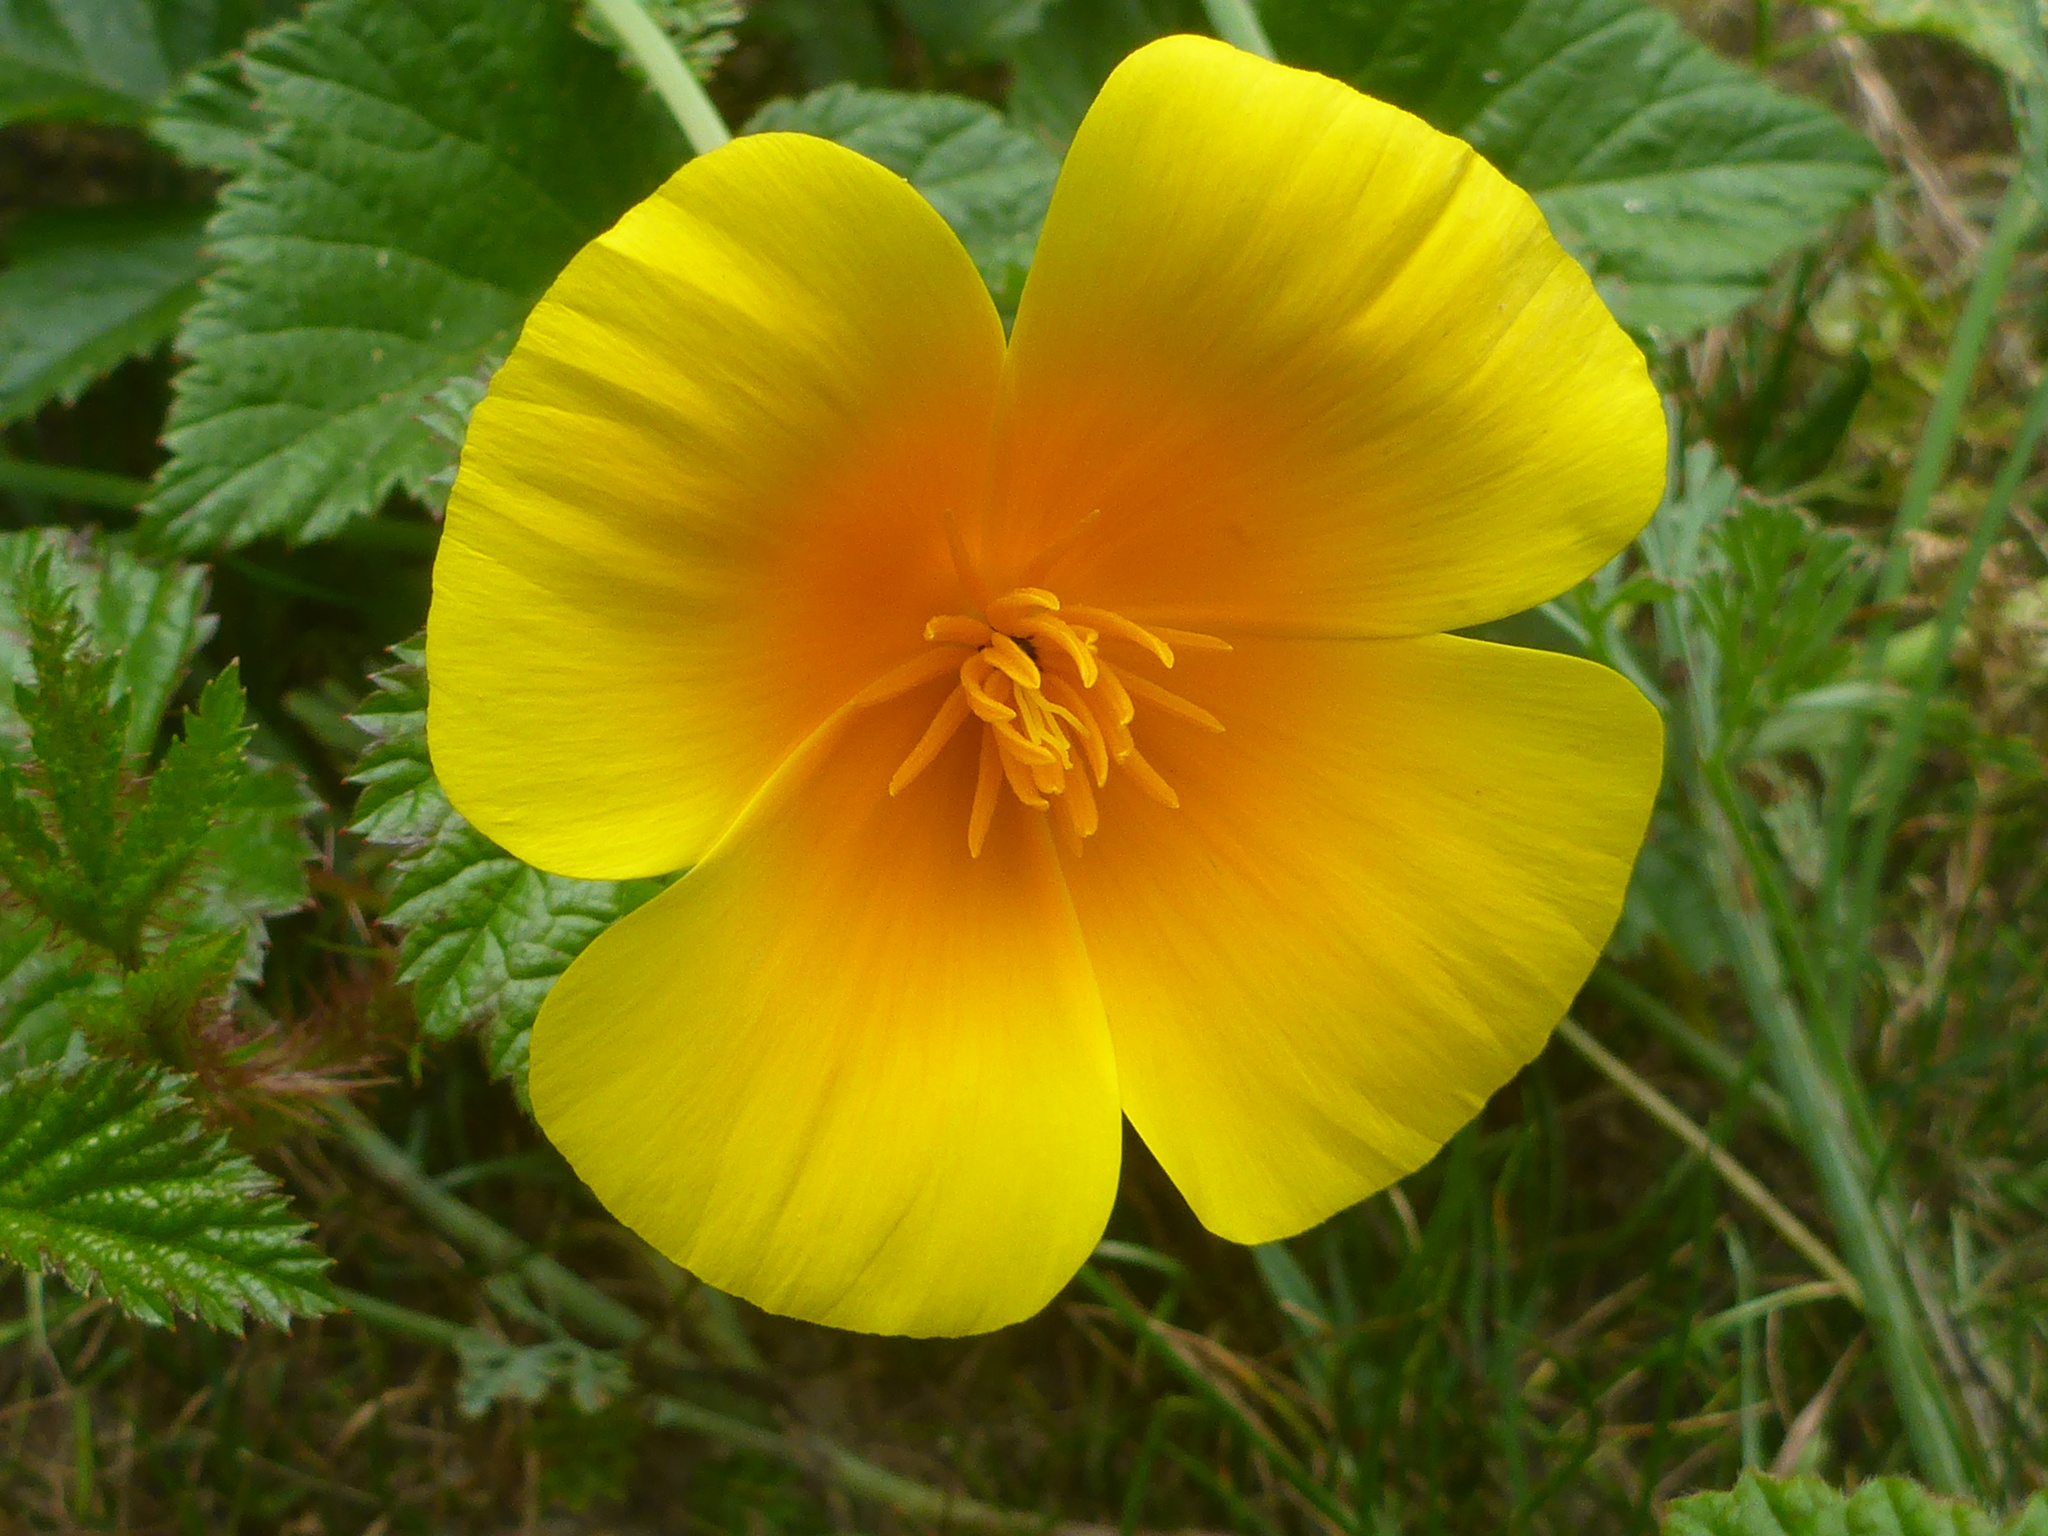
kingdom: Plantae
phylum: Tracheophyta
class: Magnoliopsida
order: Ranunculales
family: Papaveraceae
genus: Eschscholzia
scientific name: Eschscholzia californica
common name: California poppy
